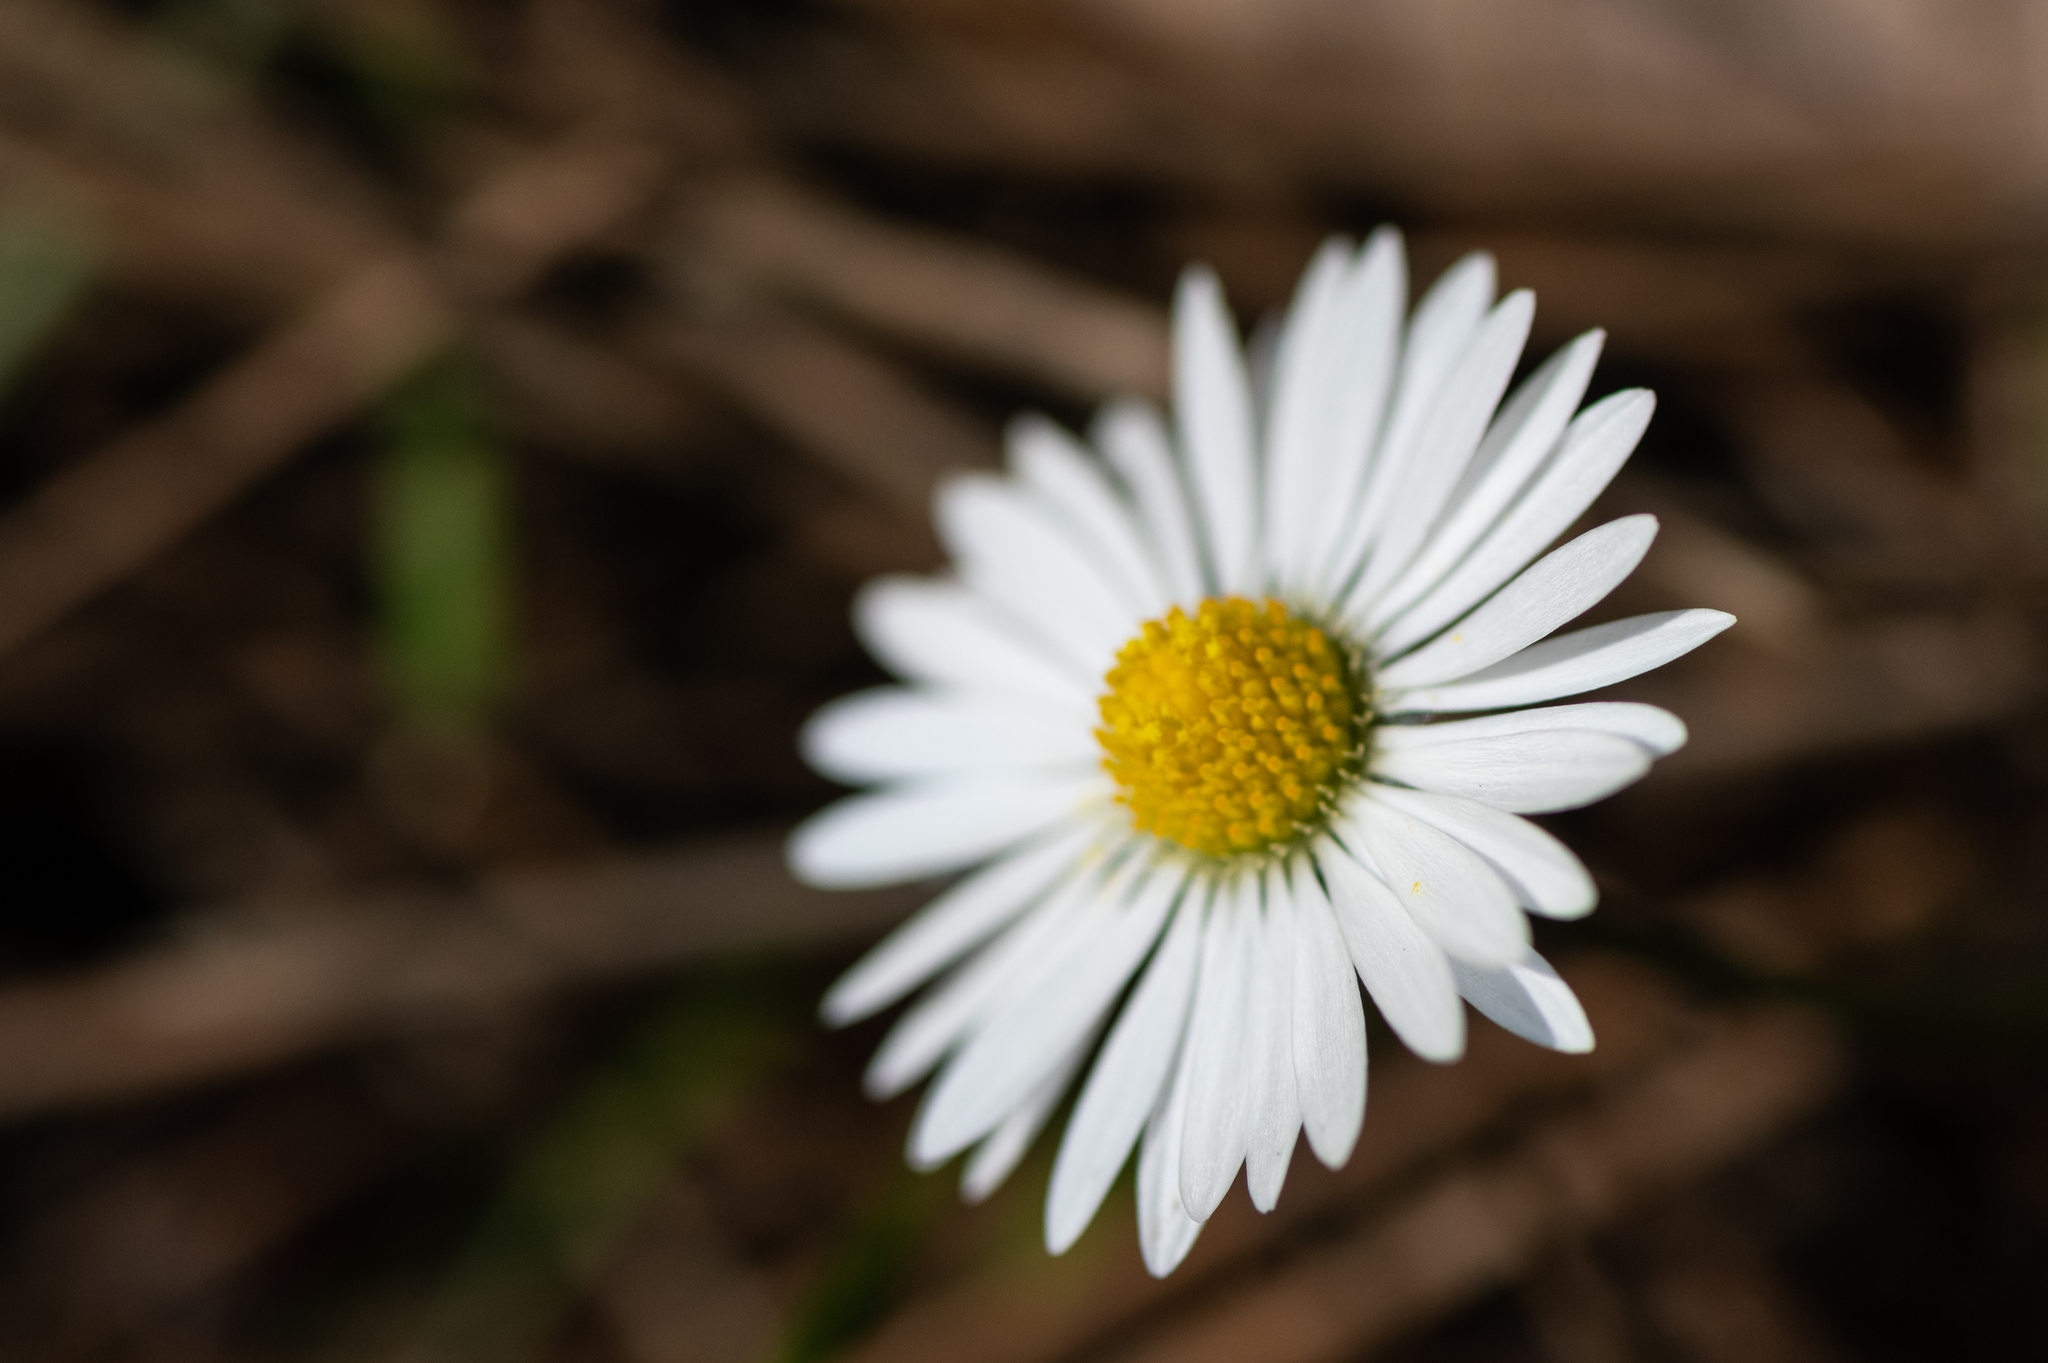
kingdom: Plantae
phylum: Tracheophyta
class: Magnoliopsida
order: Asterales
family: Asteraceae
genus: Bellis
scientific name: Bellis perennis
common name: Lawndaisy
